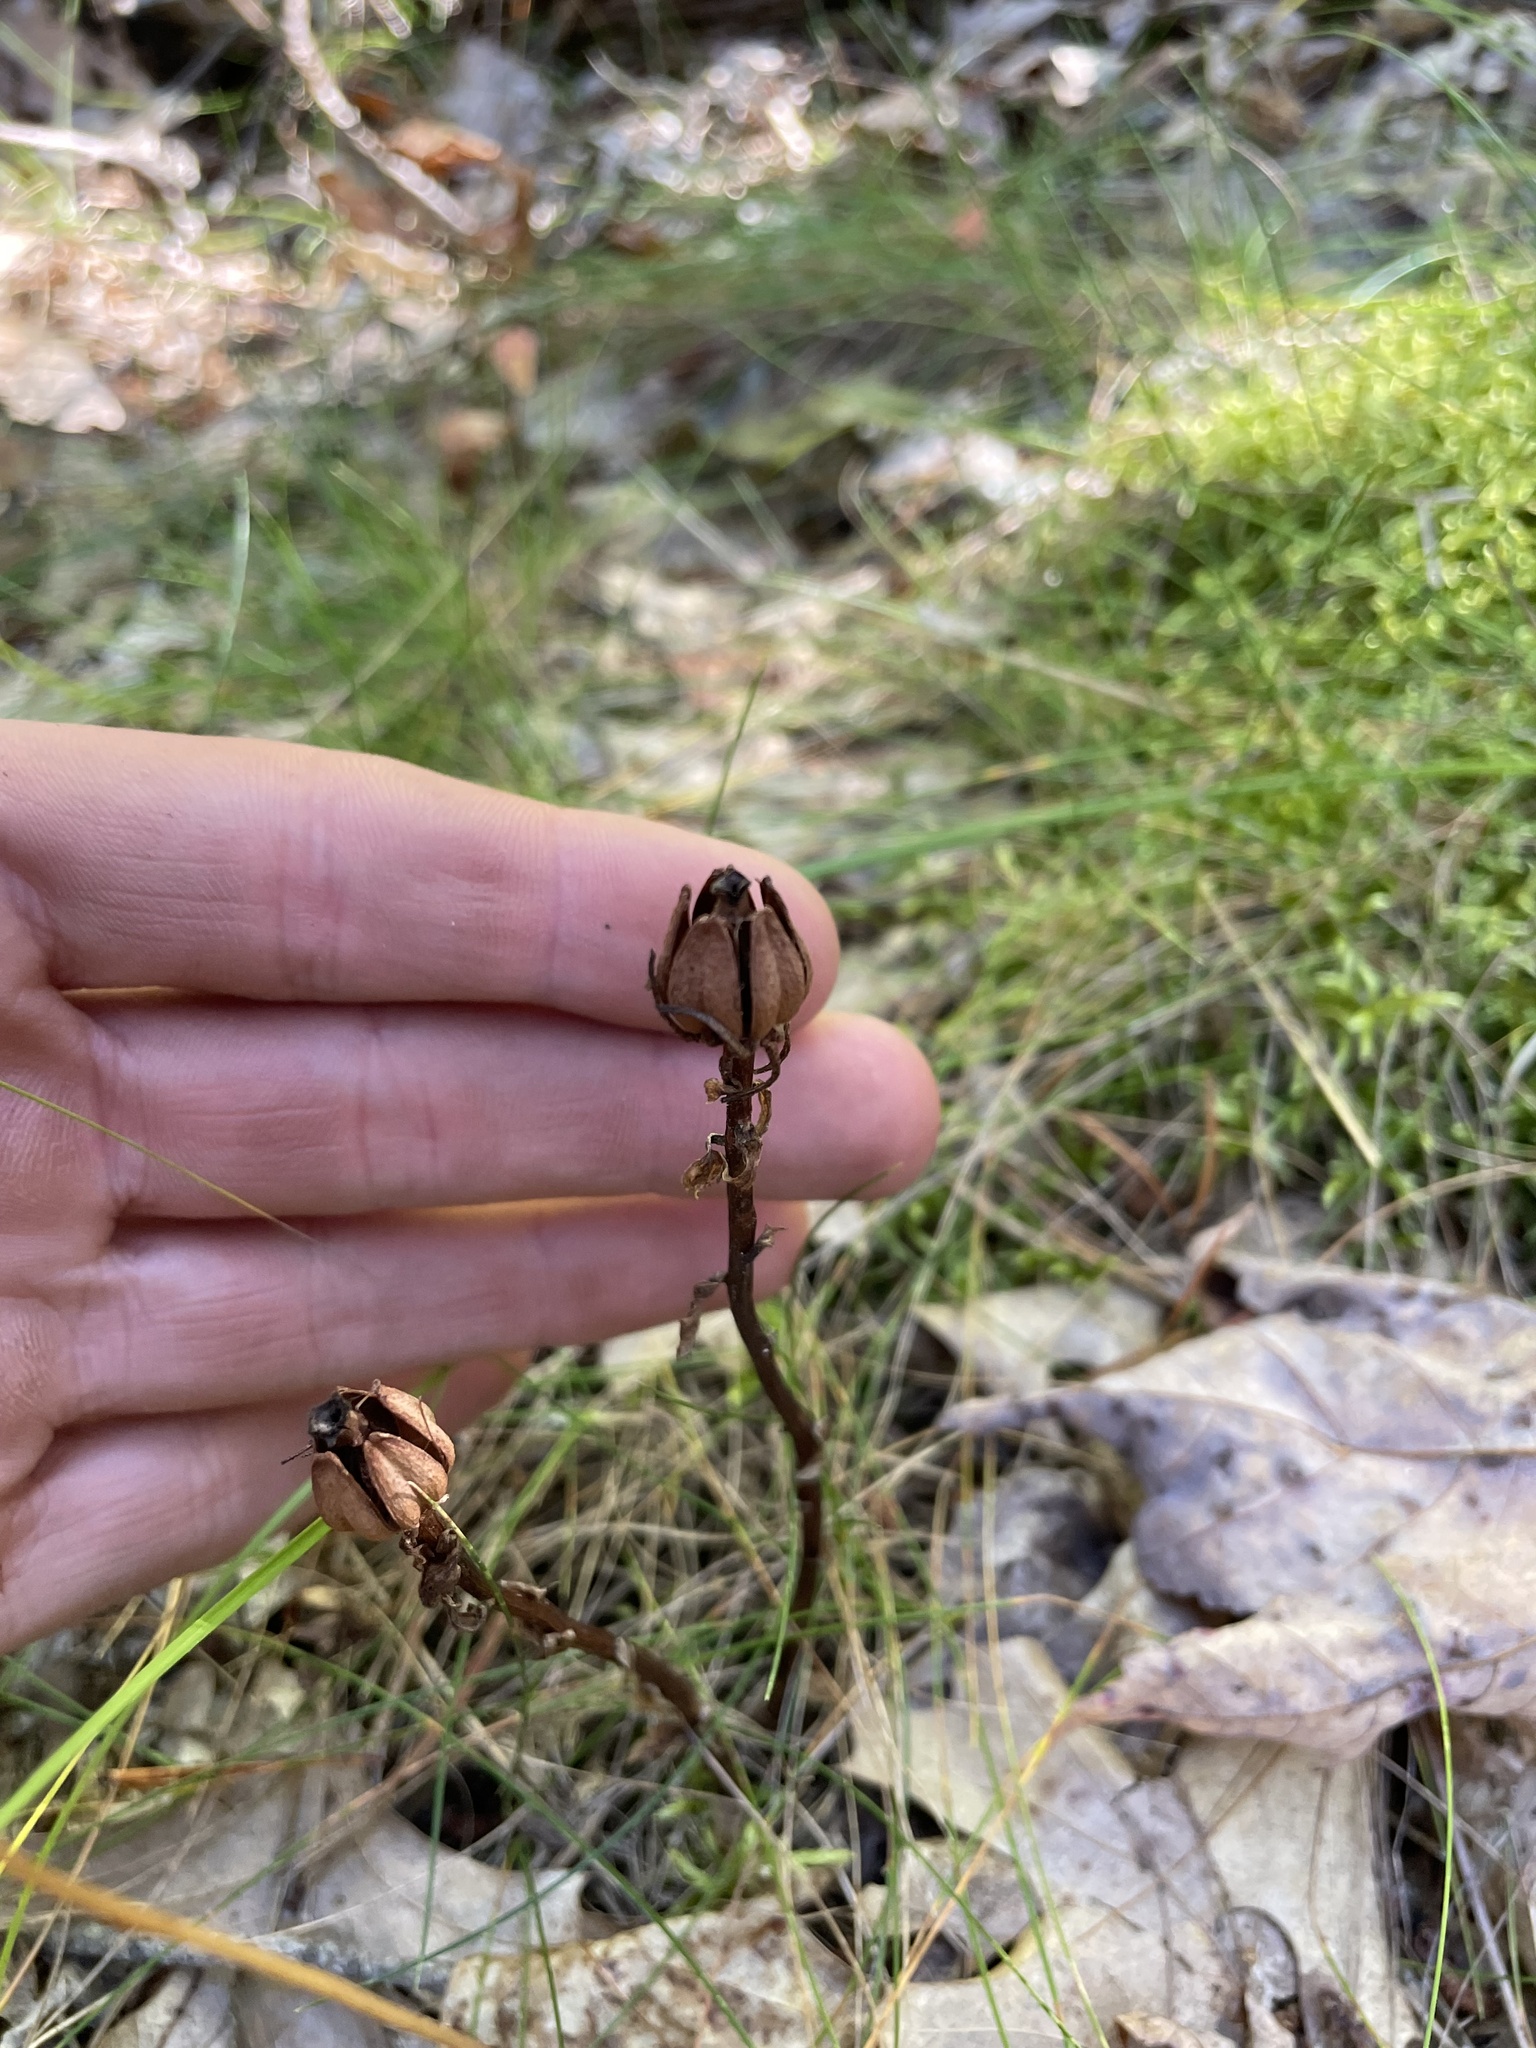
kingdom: Plantae
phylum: Tracheophyta
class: Magnoliopsida
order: Ericales
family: Ericaceae
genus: Monotropa
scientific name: Monotropa uniflora
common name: Convulsion root
